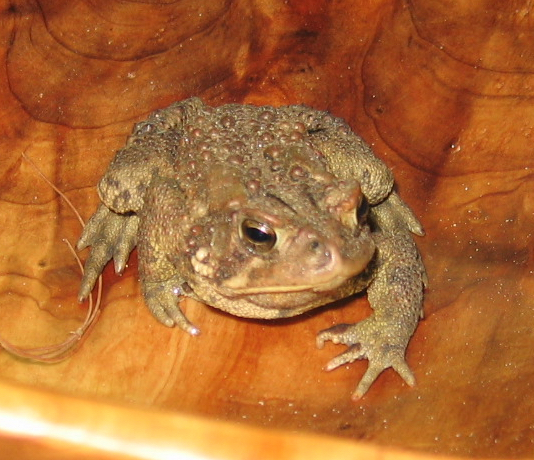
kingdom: Animalia
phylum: Chordata
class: Amphibia
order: Anura
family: Bufonidae
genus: Anaxyrus
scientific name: Anaxyrus americanus
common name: American toad
